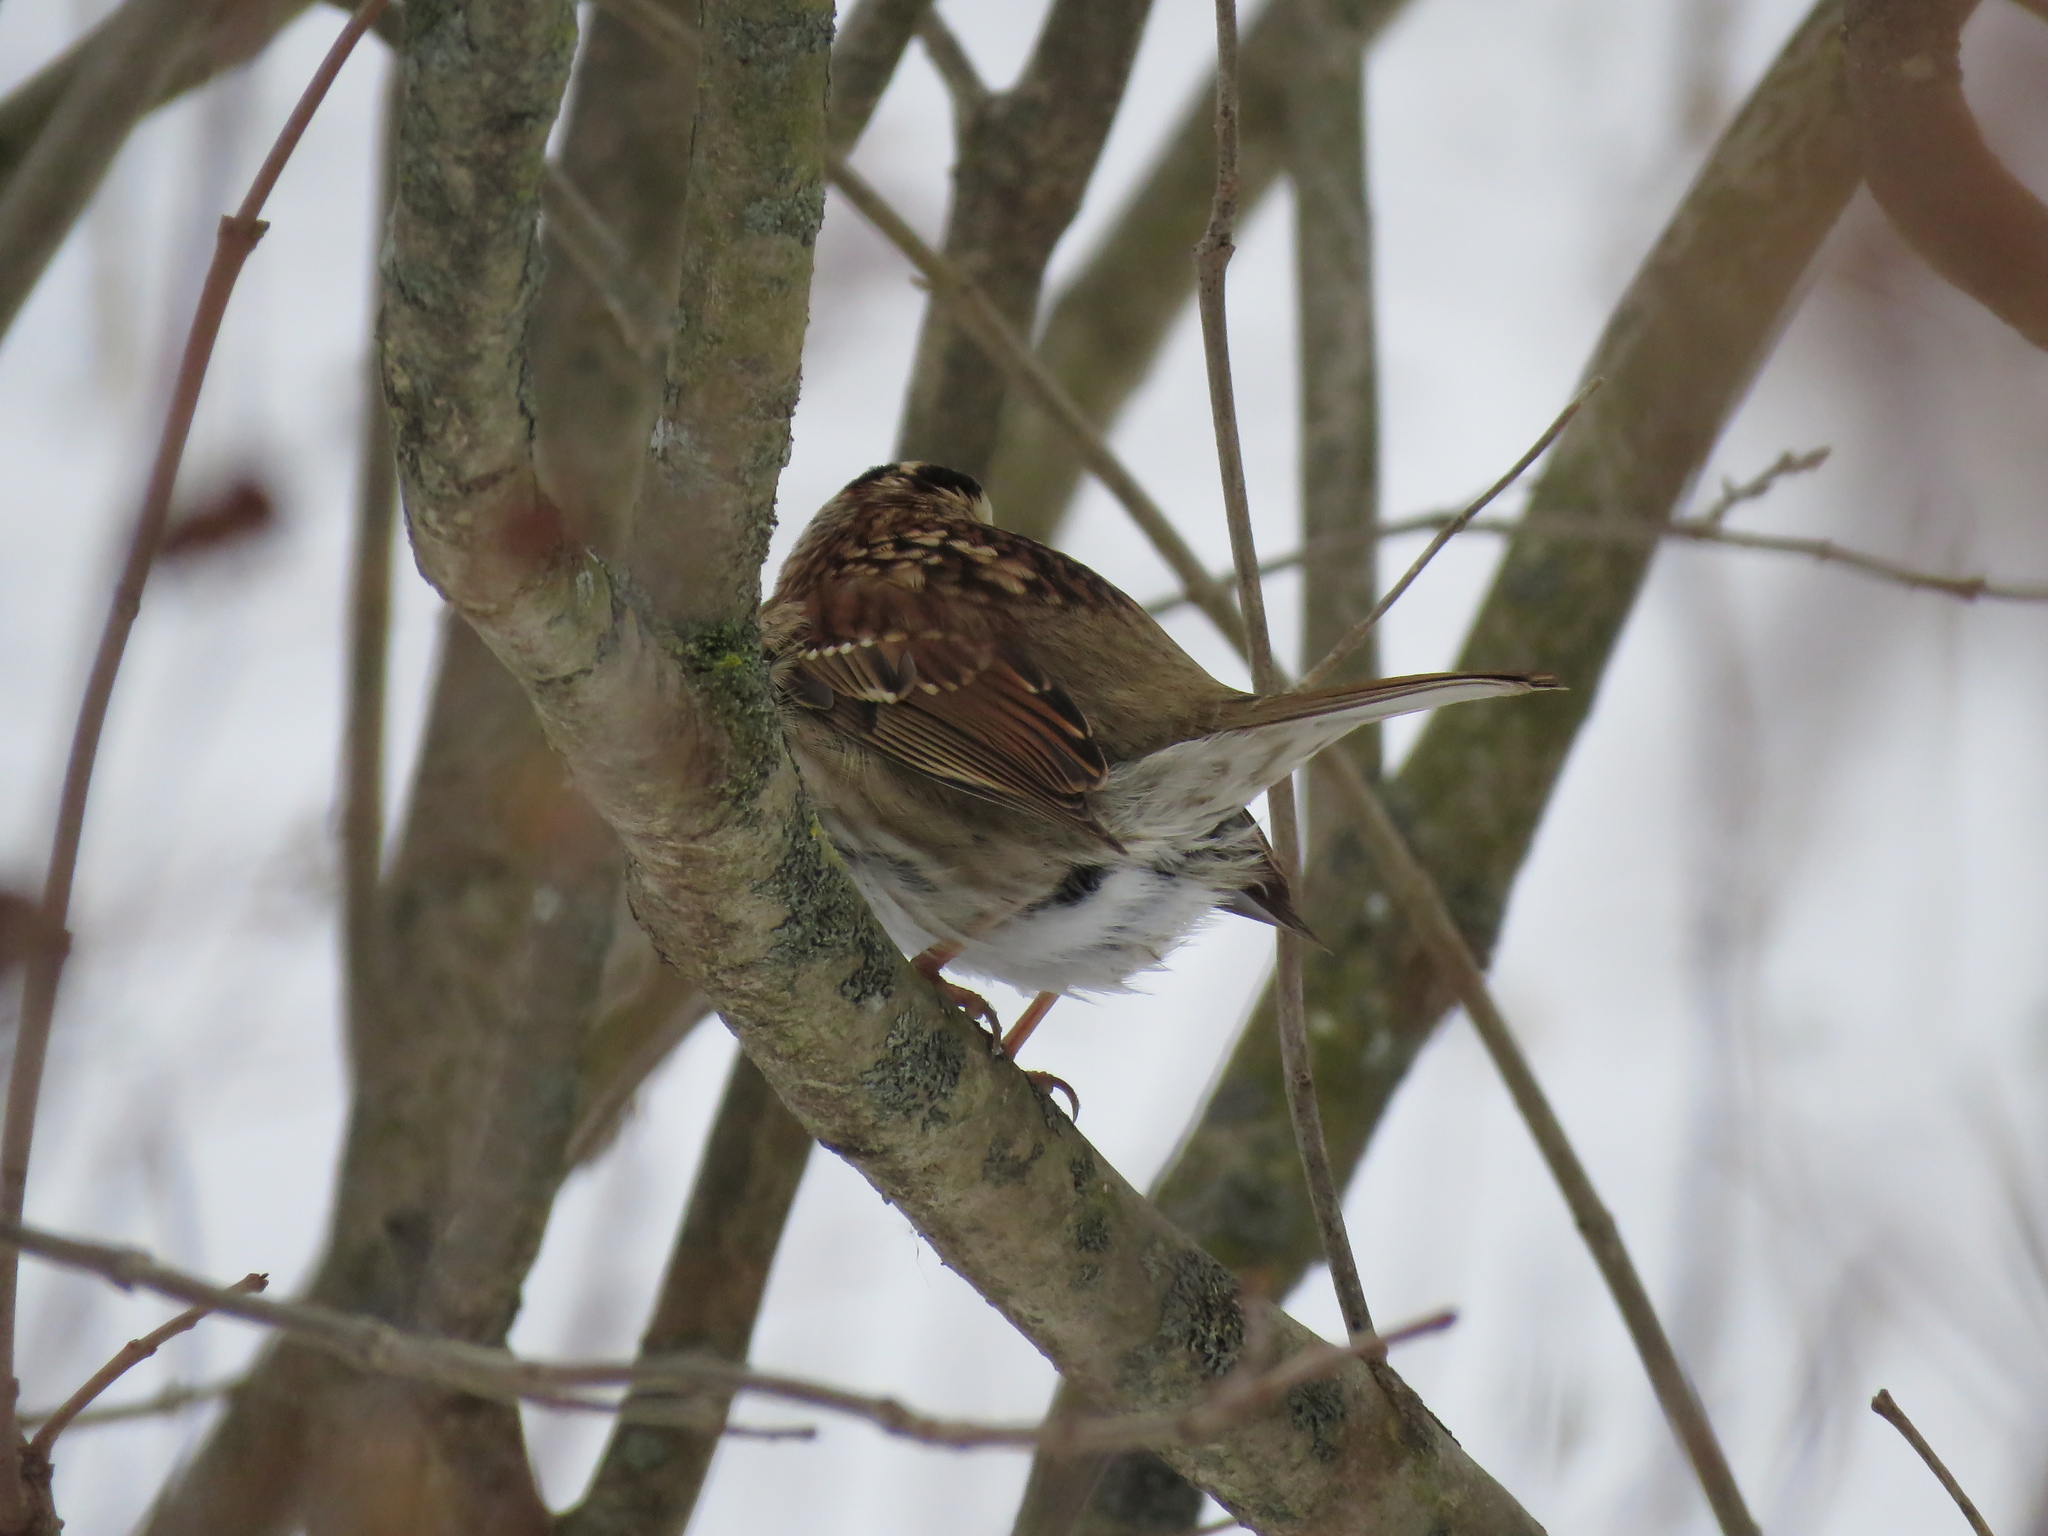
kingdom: Animalia
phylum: Chordata
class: Aves
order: Passeriformes
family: Passerellidae
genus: Zonotrichia
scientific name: Zonotrichia albicollis
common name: White-throated sparrow
